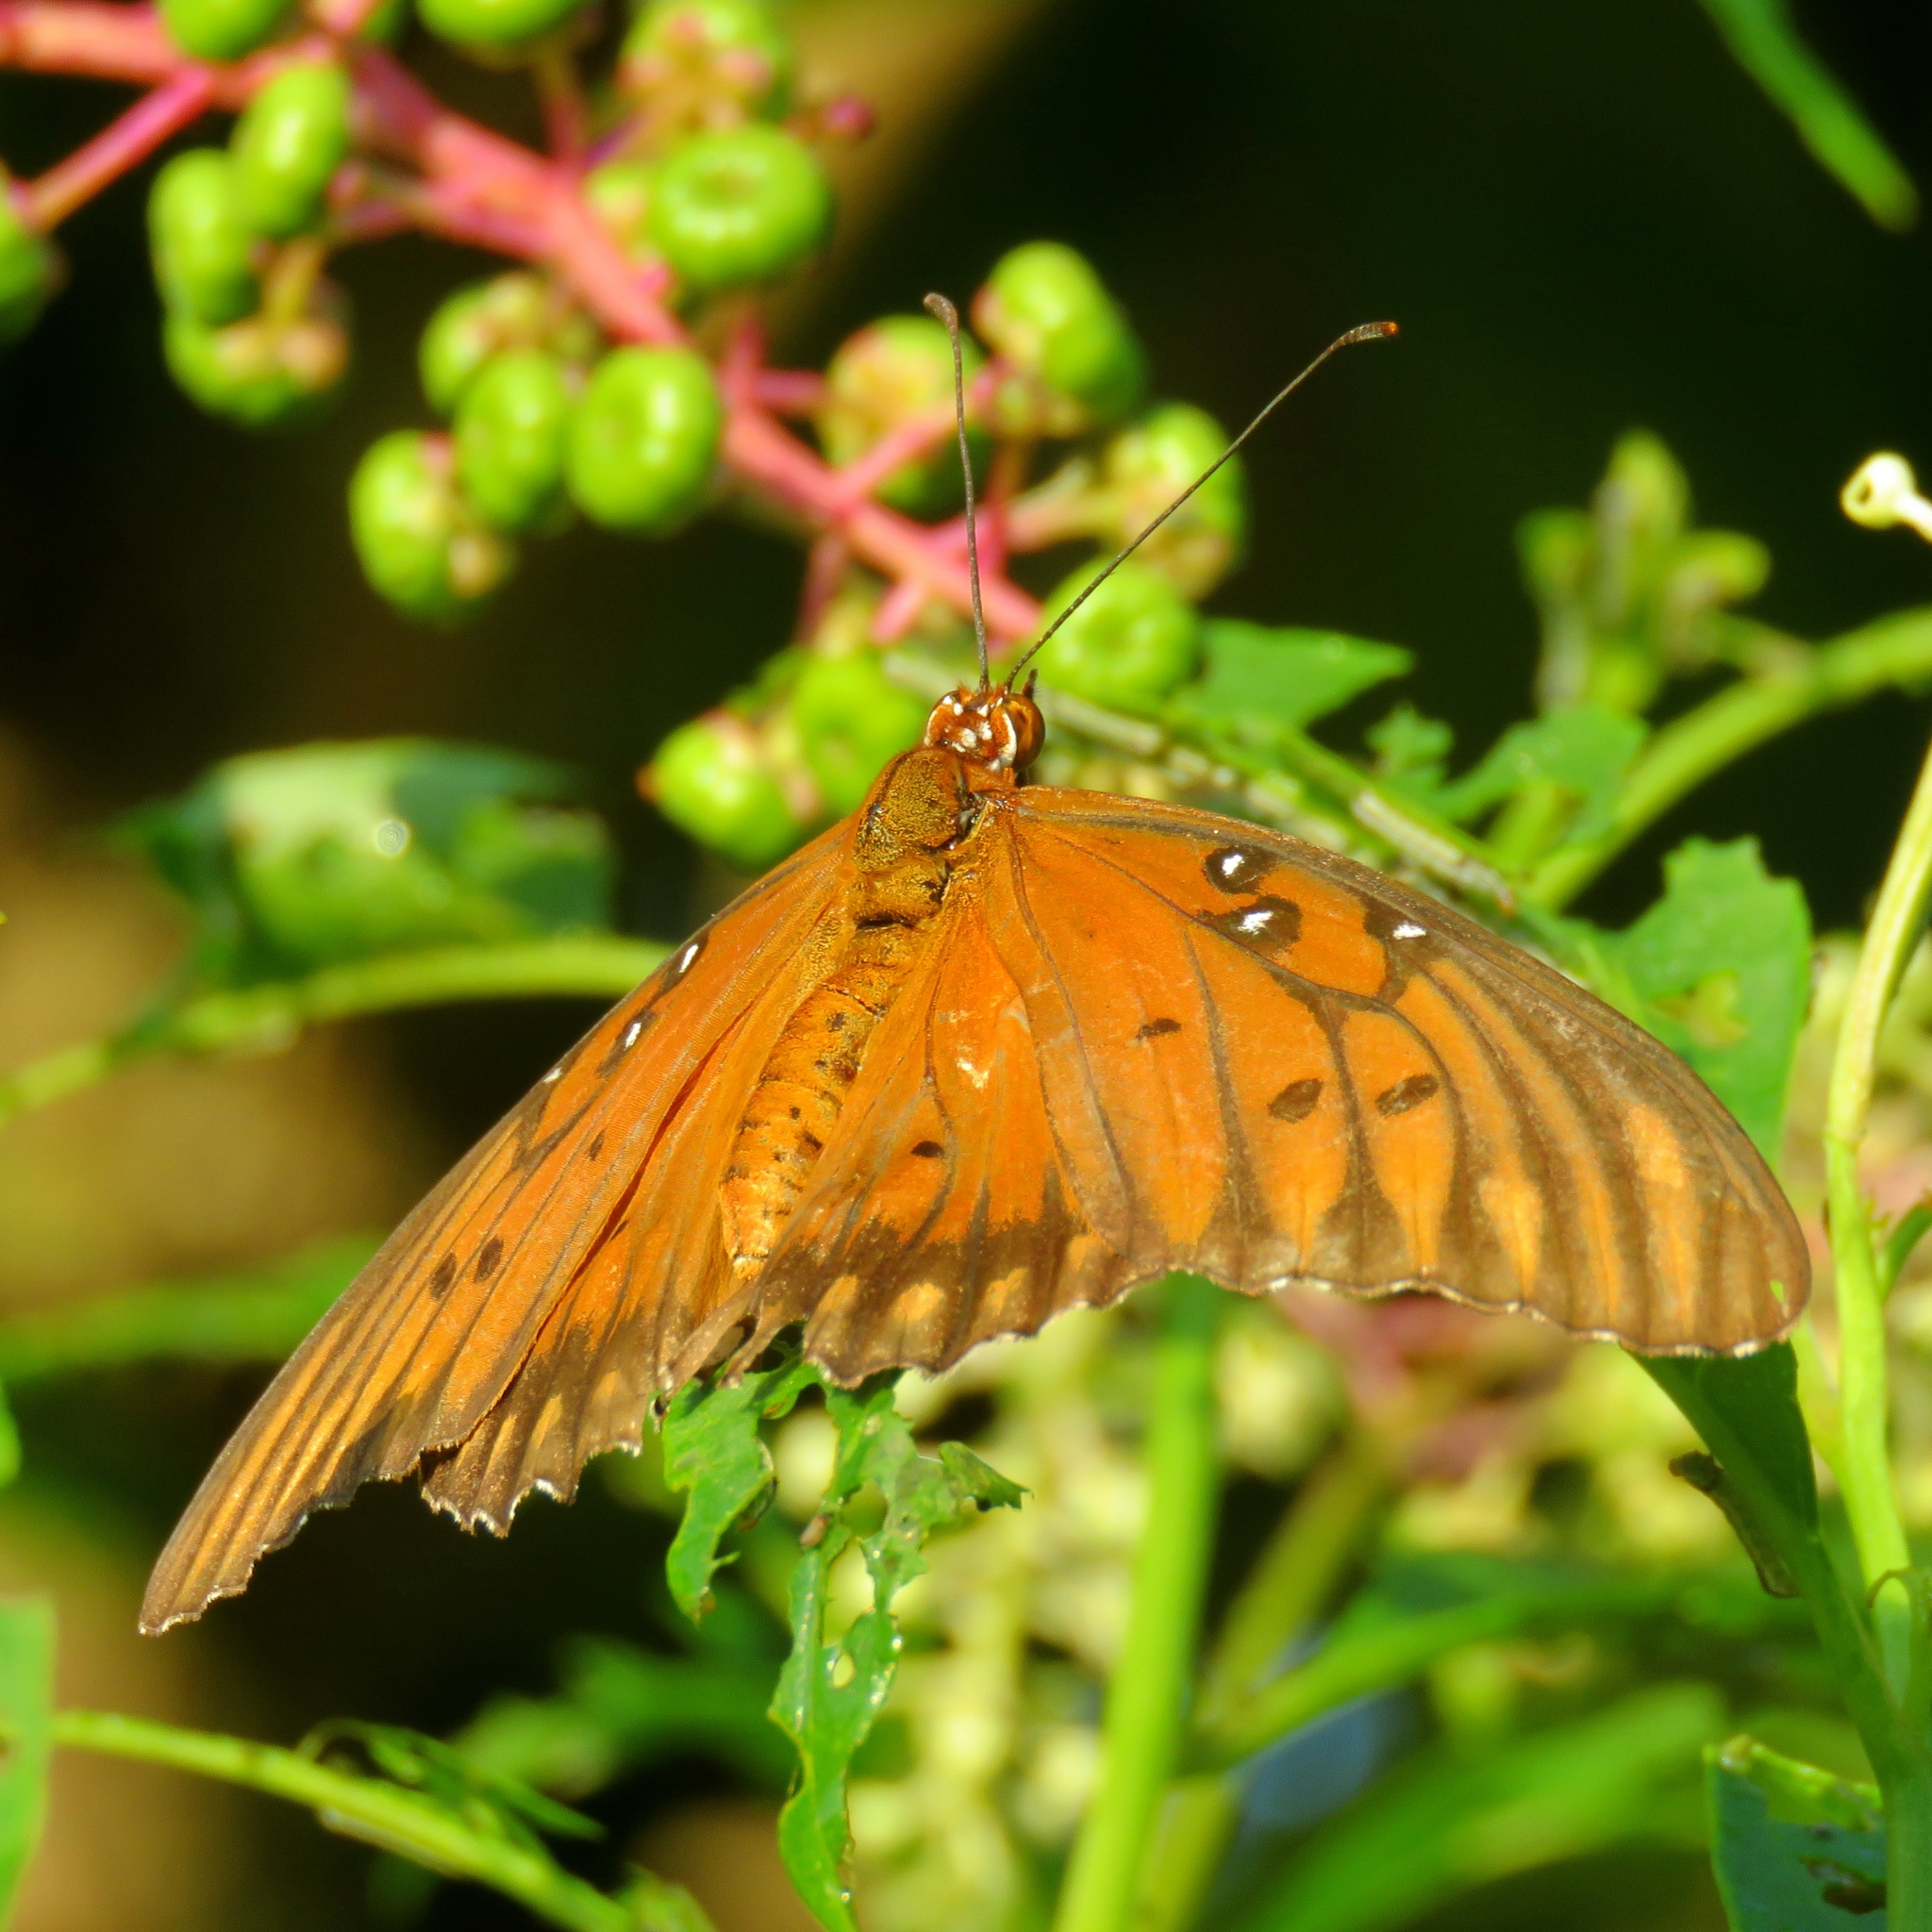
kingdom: Animalia
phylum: Arthropoda
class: Insecta
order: Lepidoptera
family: Nymphalidae
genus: Dione
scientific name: Dione vanillae
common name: Gulf fritillary
